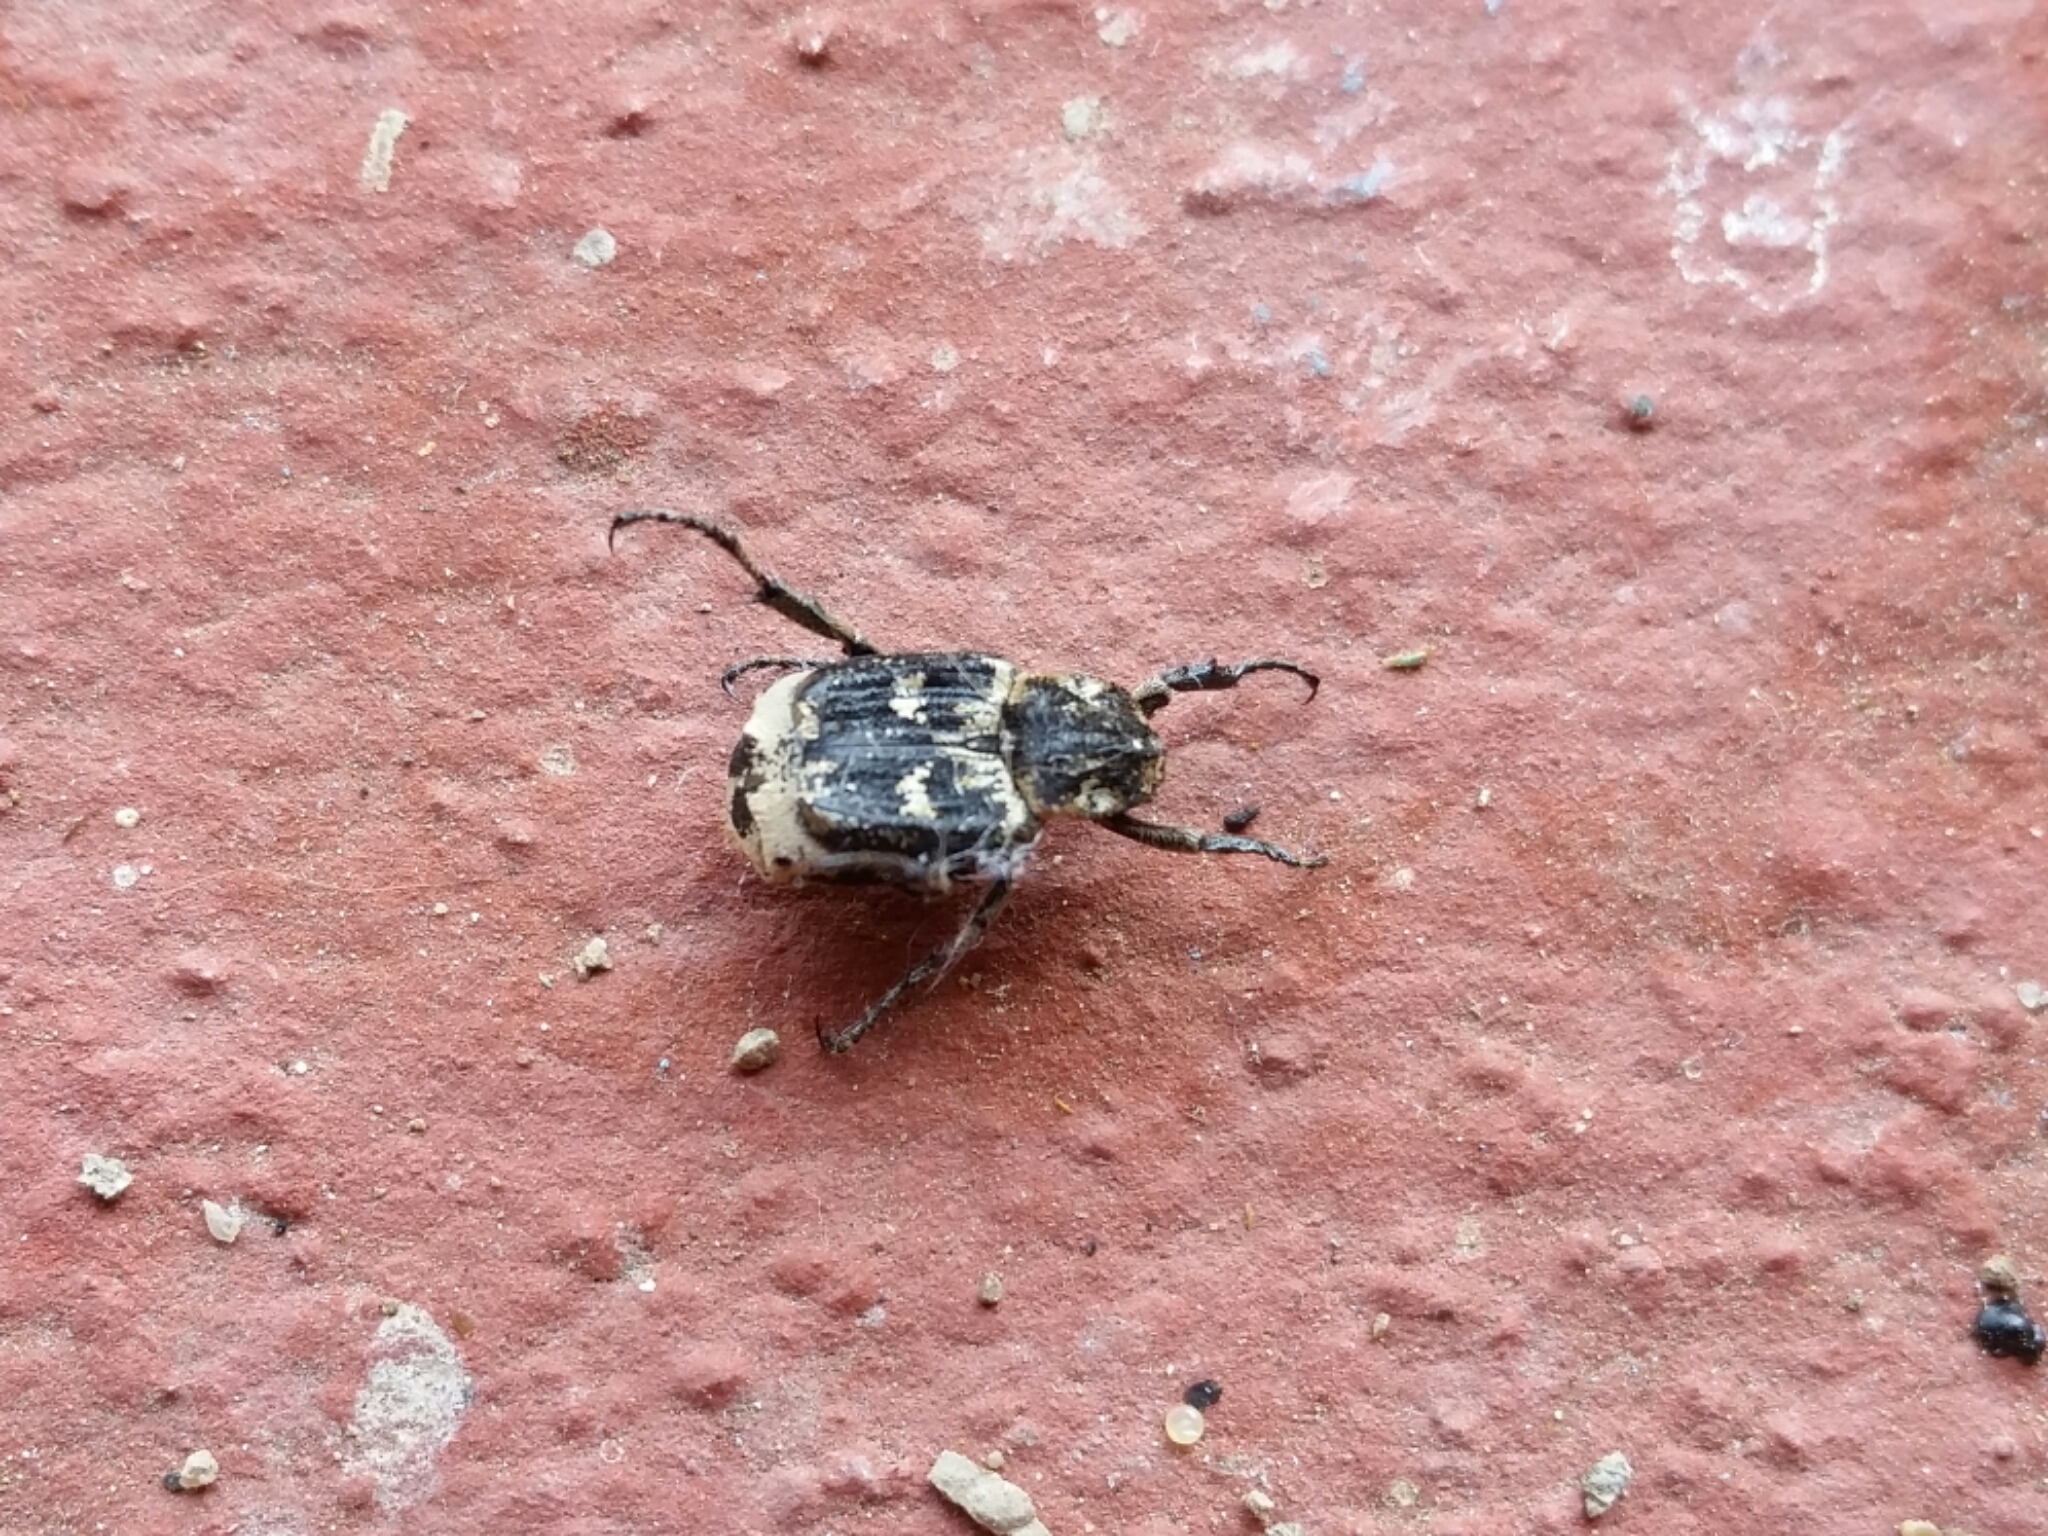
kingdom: Animalia
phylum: Arthropoda
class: Insecta
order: Coleoptera
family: Scarabaeidae
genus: Valgus
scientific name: Valgus hemipterus
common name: Bug flower chafer
